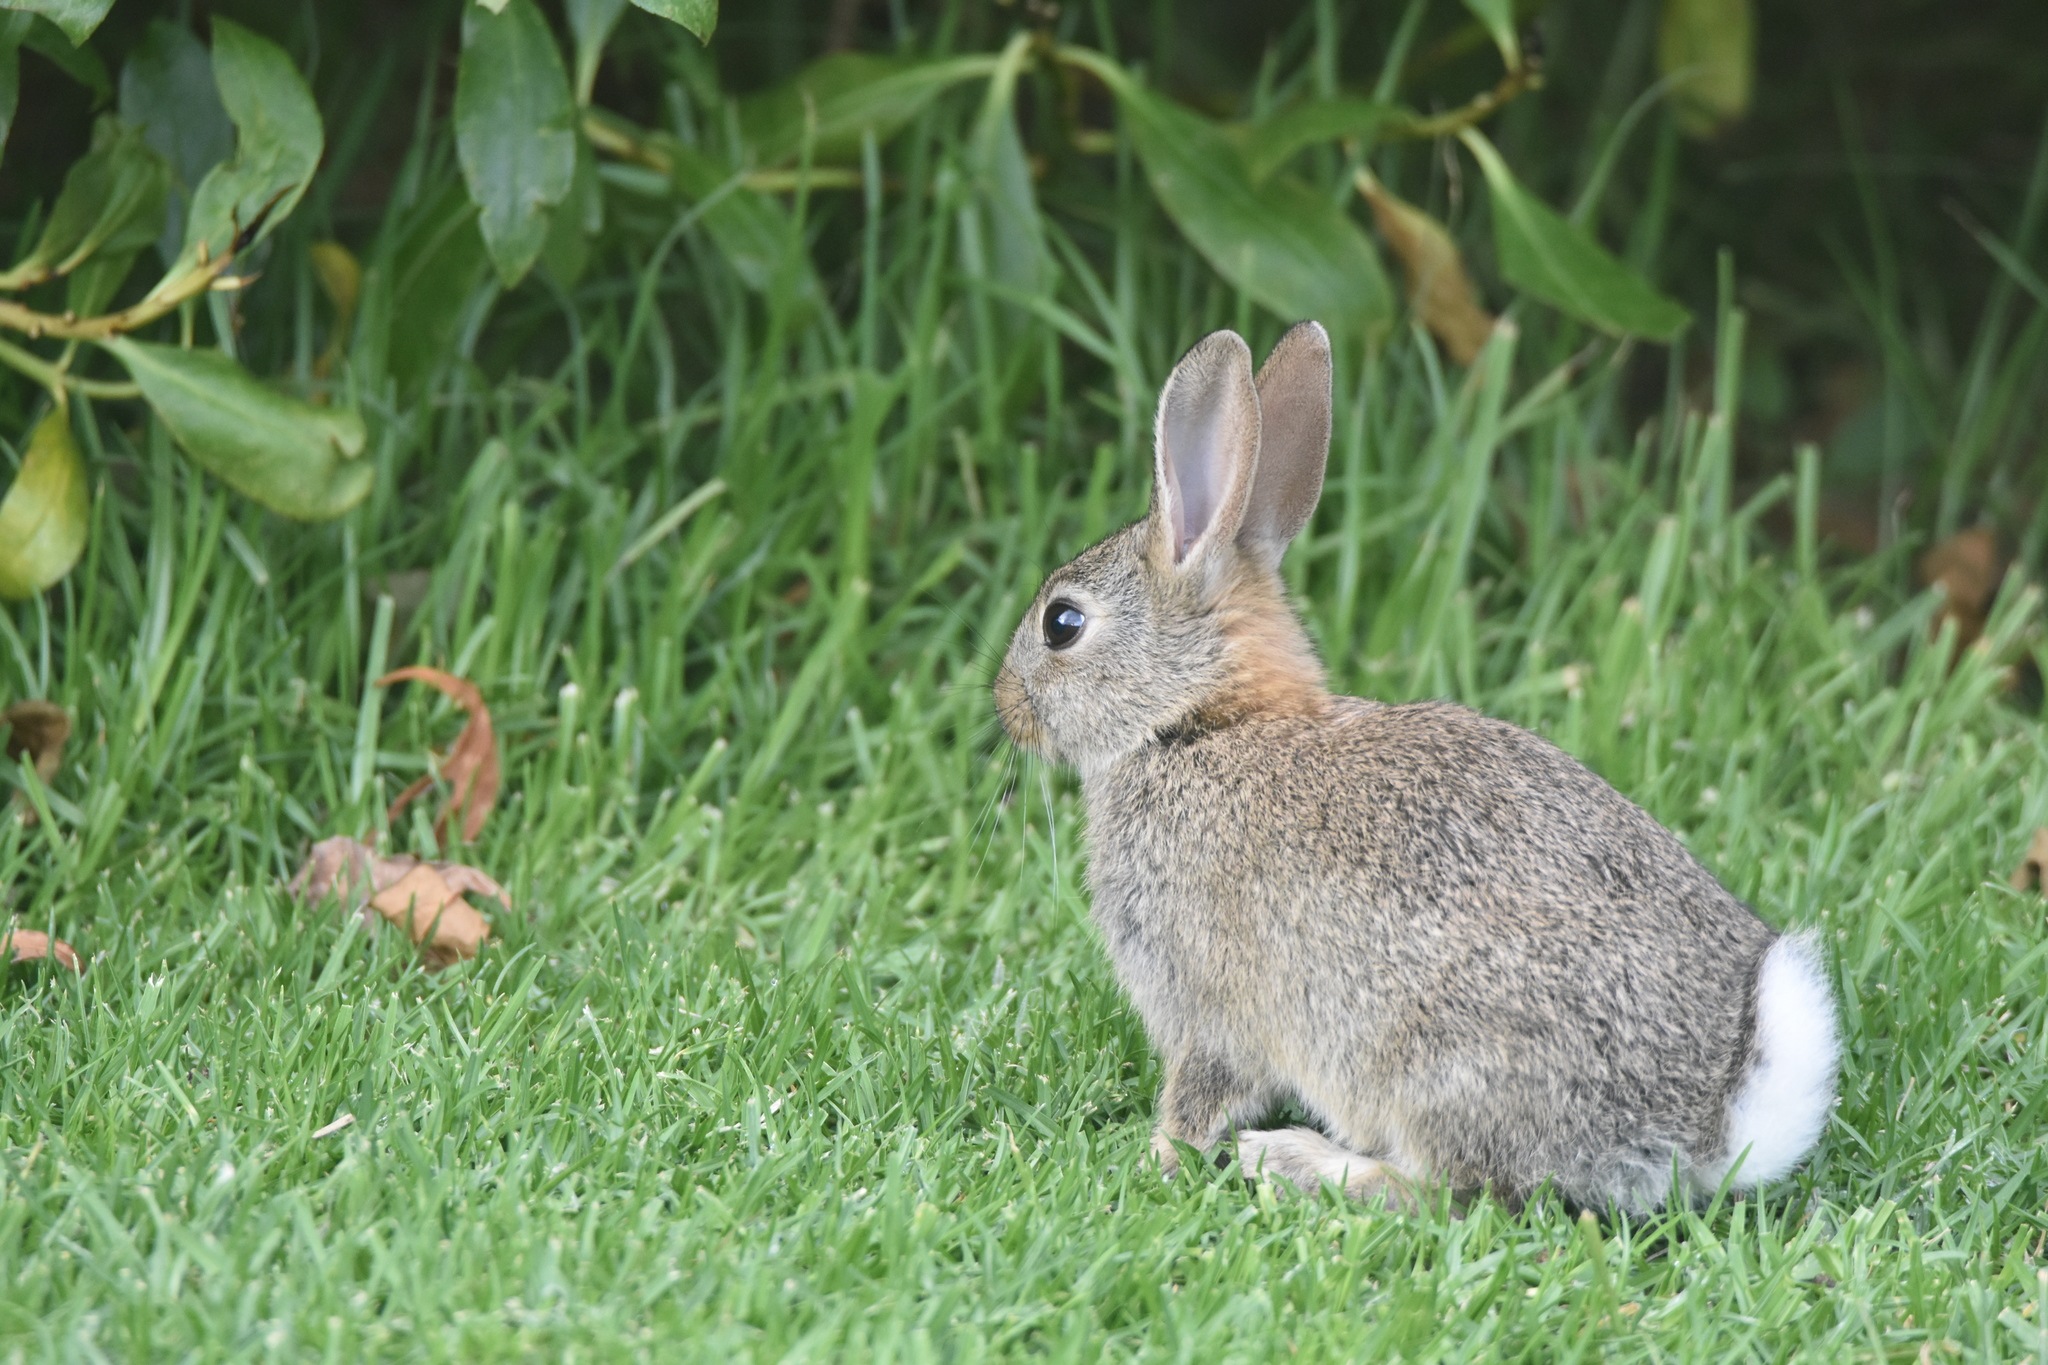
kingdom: Animalia
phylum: Chordata
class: Mammalia
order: Lagomorpha
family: Leporidae
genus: Oryctolagus
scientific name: Oryctolagus cuniculus
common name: European rabbit
